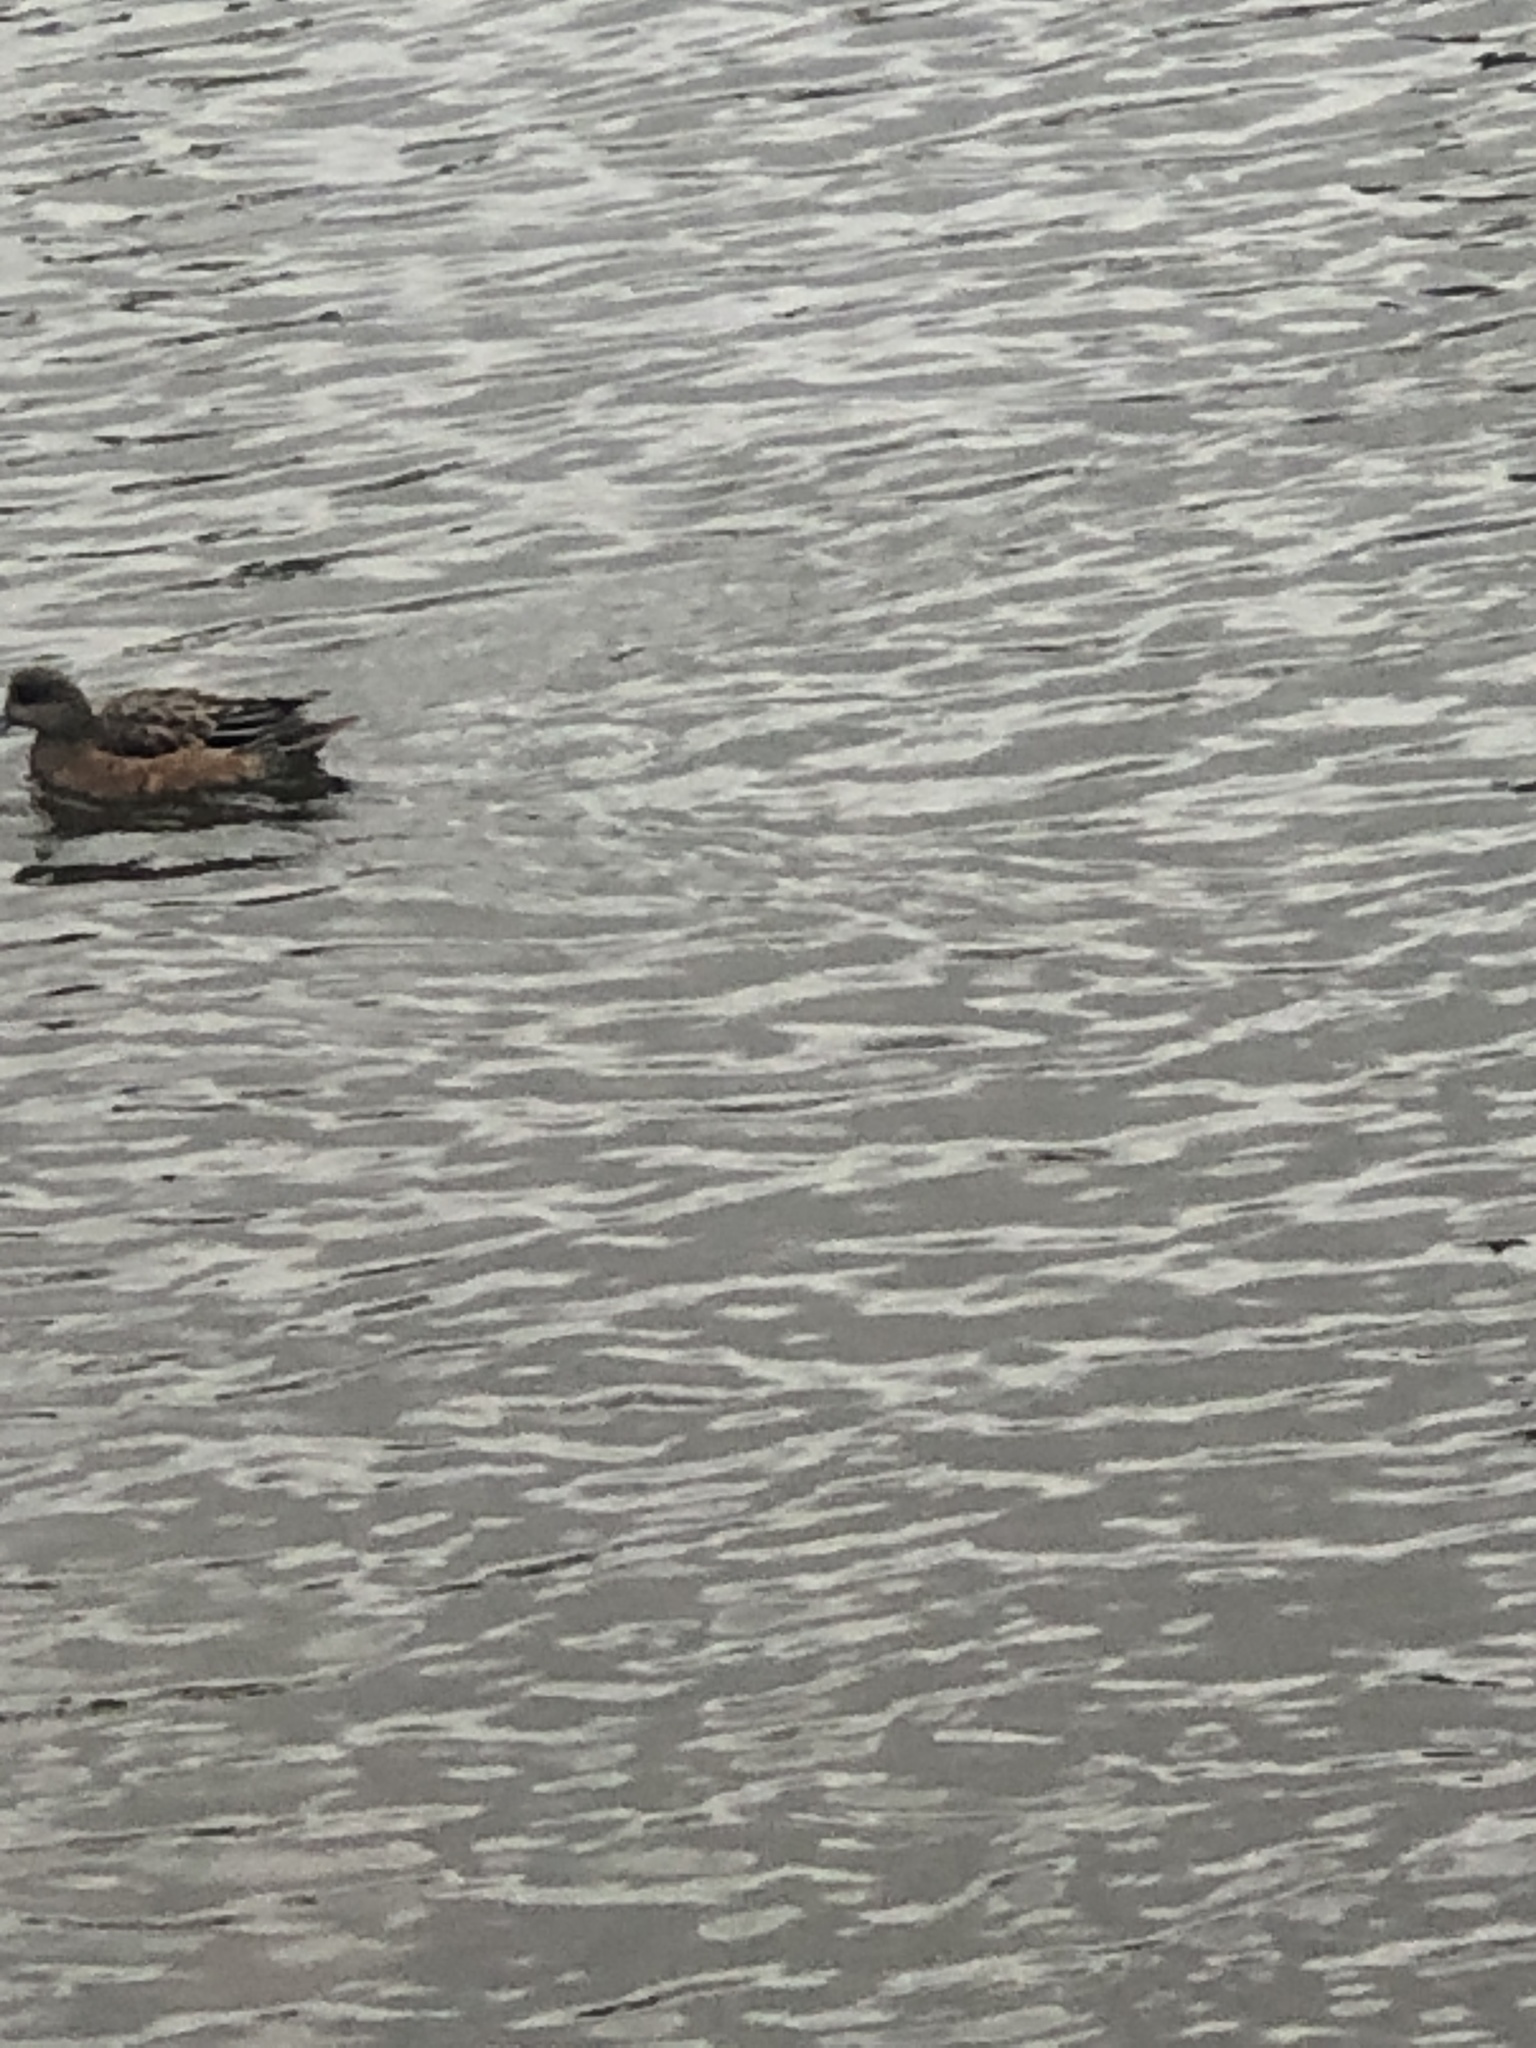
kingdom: Animalia
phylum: Chordata
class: Aves
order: Anseriformes
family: Anatidae
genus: Mareca
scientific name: Mareca americana
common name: American wigeon
